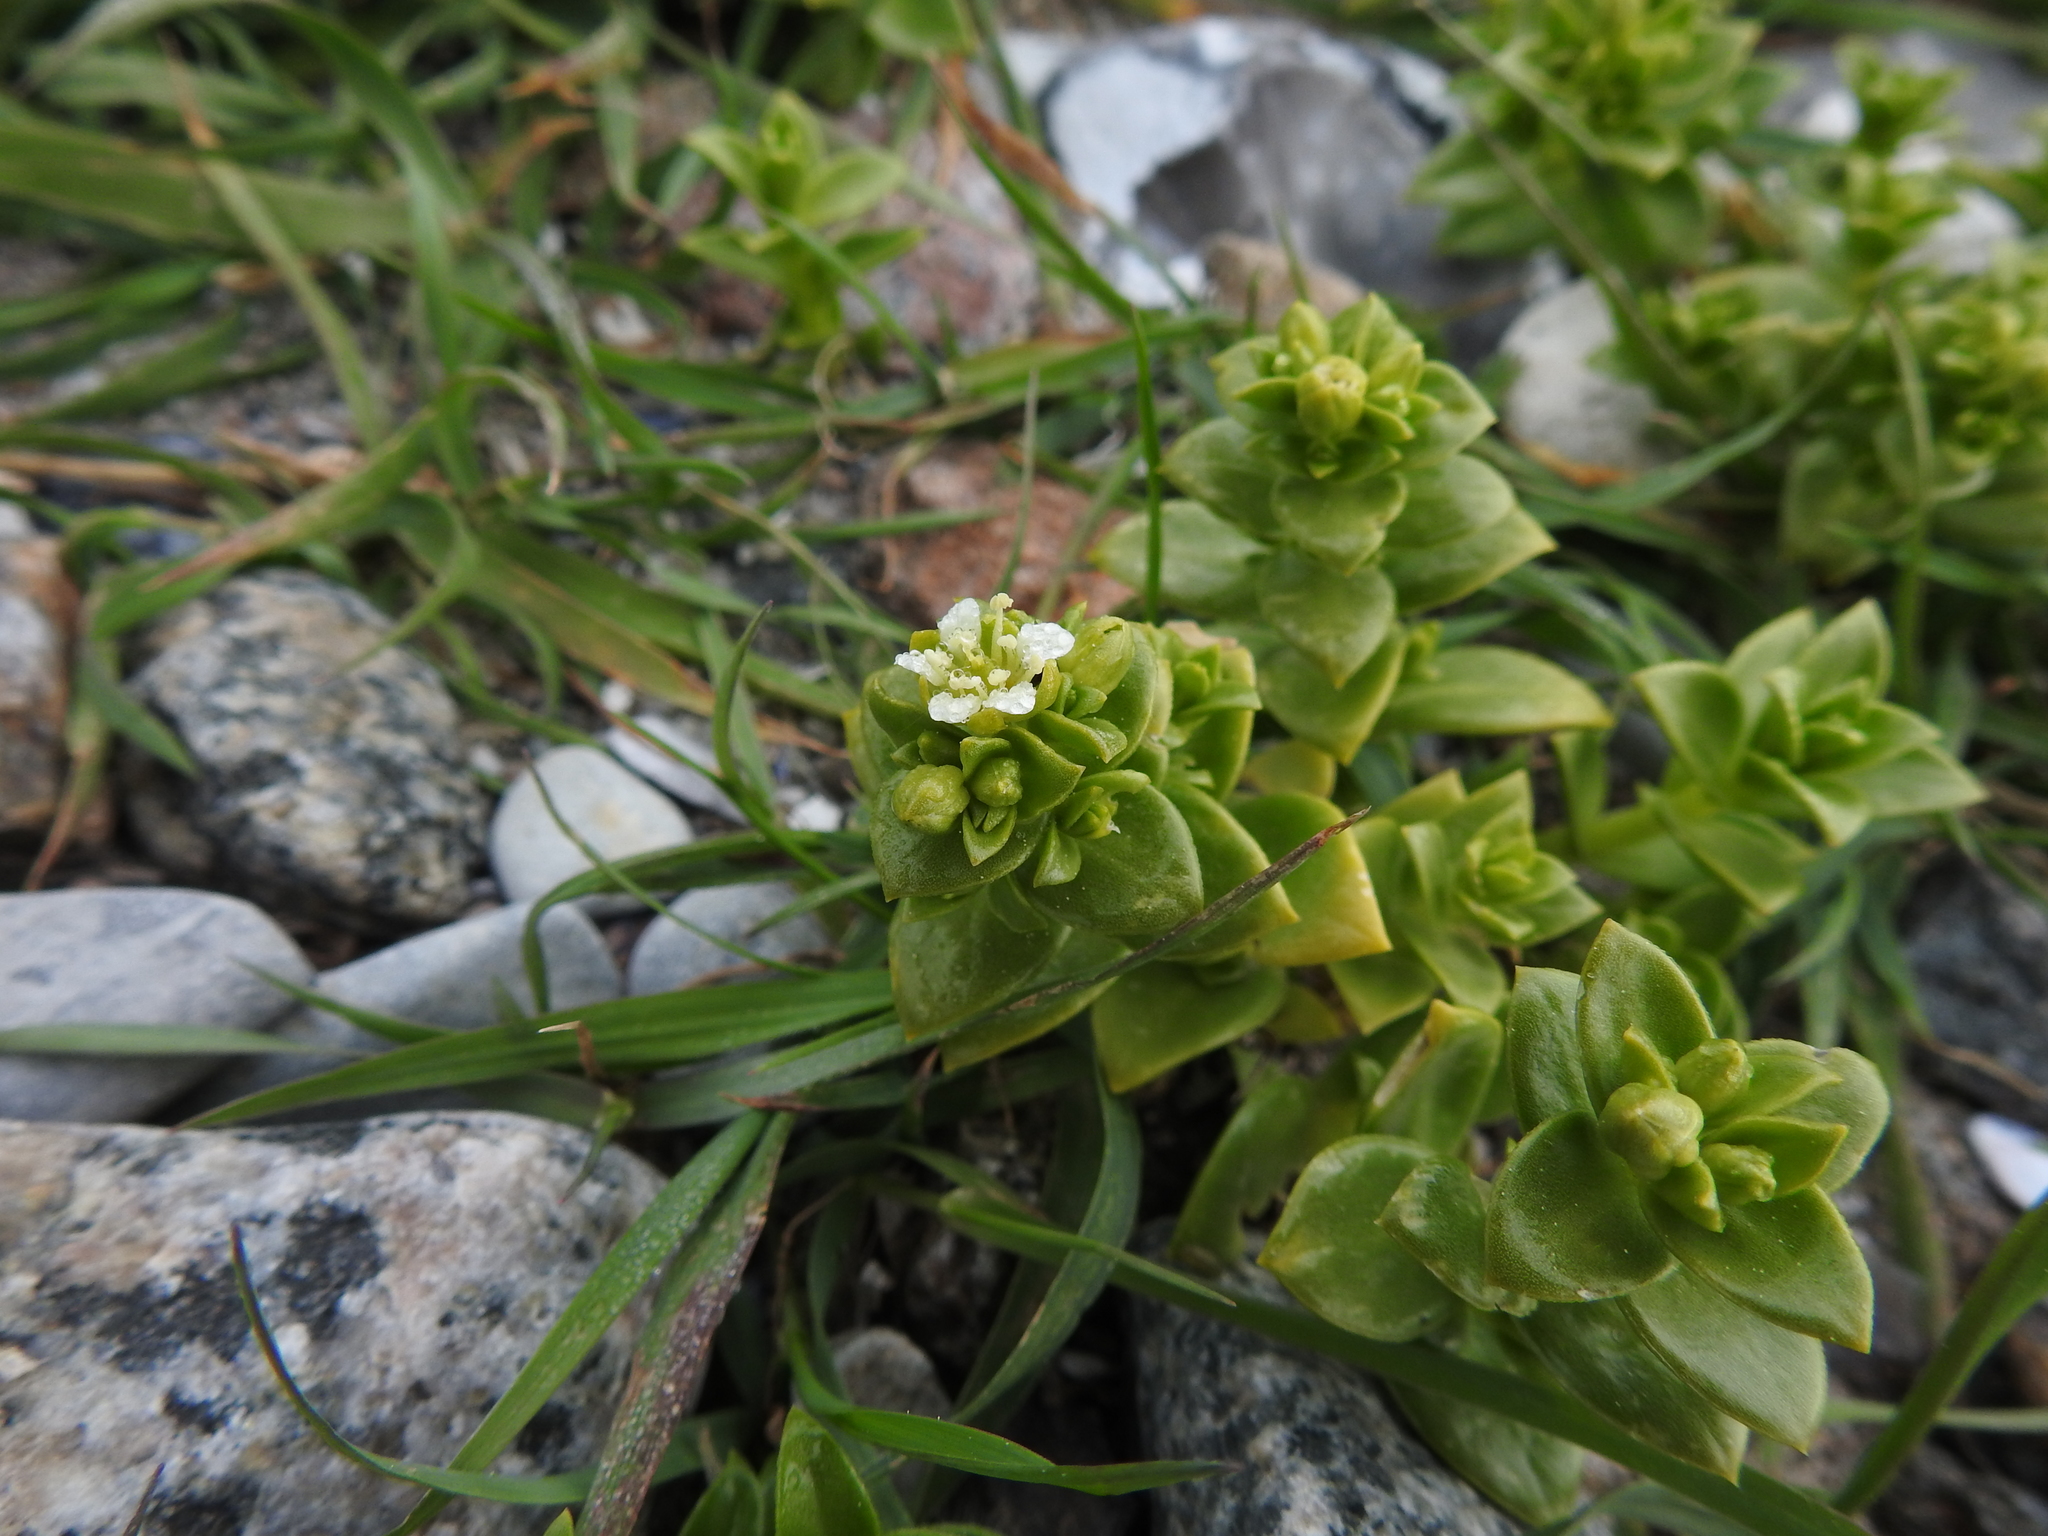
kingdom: Plantae
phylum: Tracheophyta
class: Magnoliopsida
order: Caryophyllales
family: Caryophyllaceae
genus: Honckenya
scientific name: Honckenya peploides
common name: Sea sandwort
